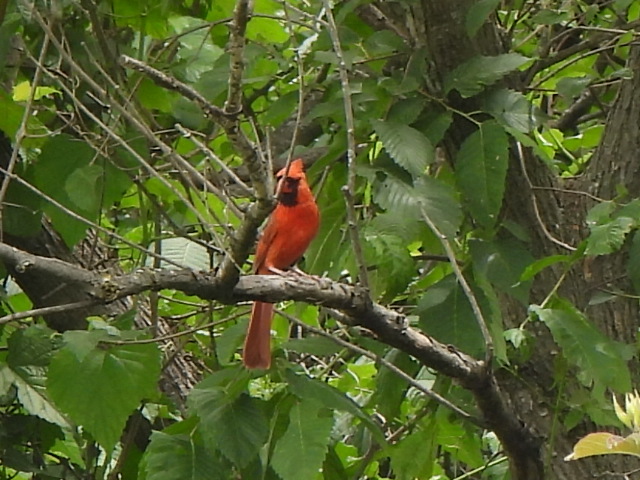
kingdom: Animalia
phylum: Chordata
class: Aves
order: Passeriformes
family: Cardinalidae
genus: Cardinalis
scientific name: Cardinalis cardinalis
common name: Northern cardinal
